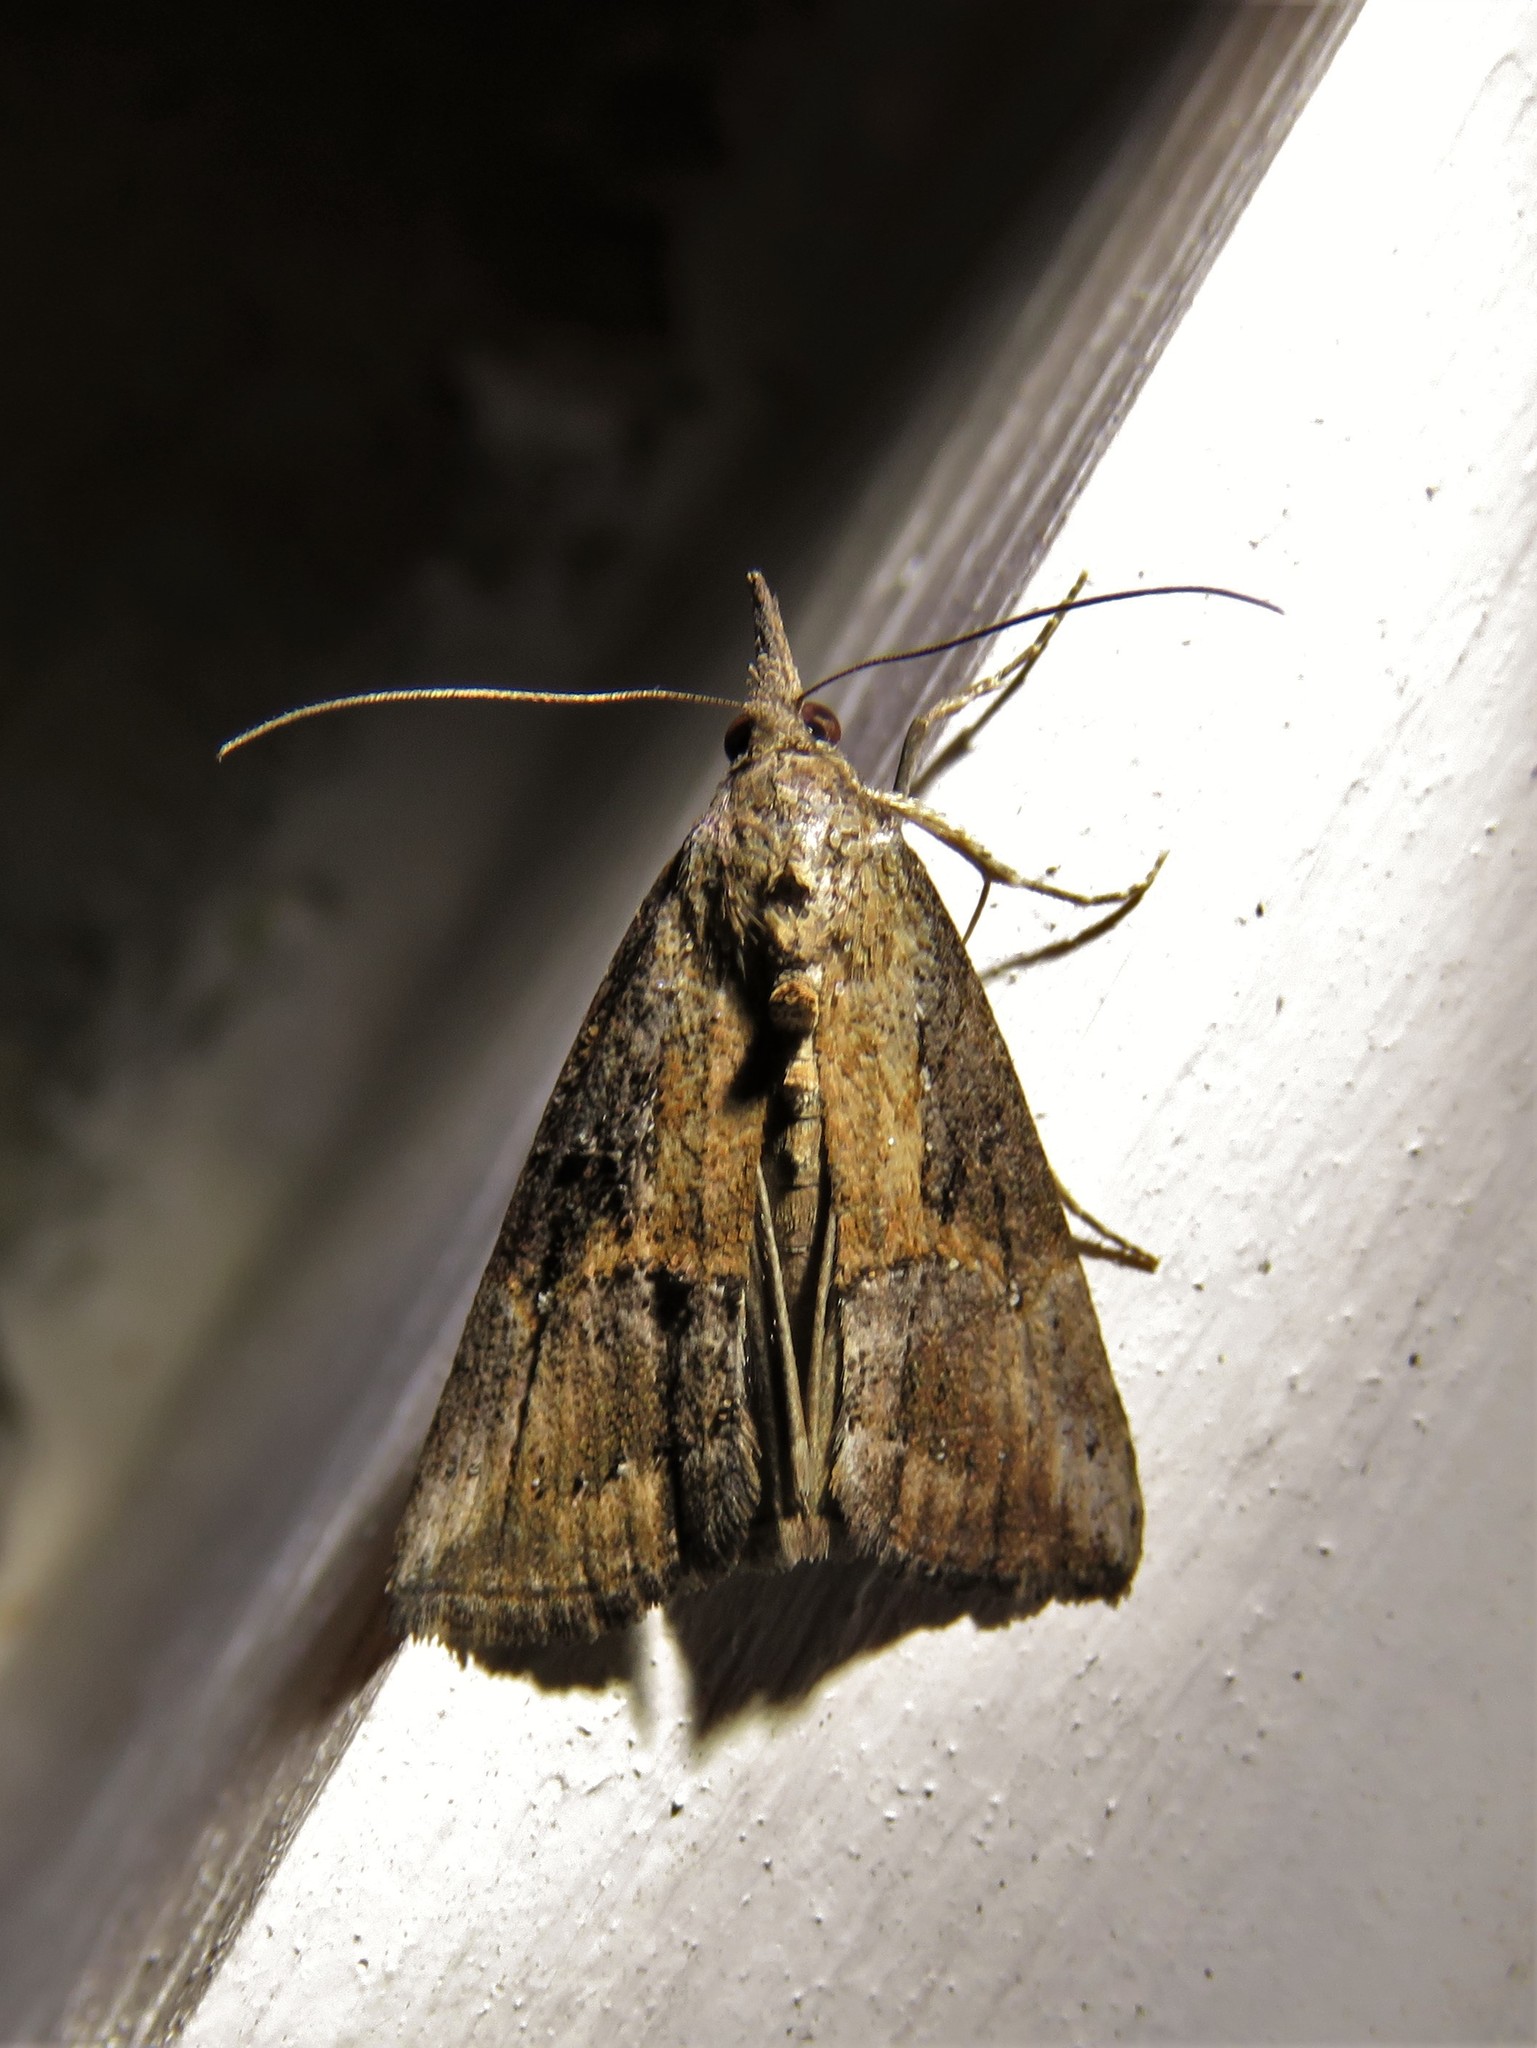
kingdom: Animalia
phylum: Arthropoda
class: Insecta
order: Lepidoptera
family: Erebidae
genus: Hypena
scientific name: Hypena scabra
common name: Green cloverworm
